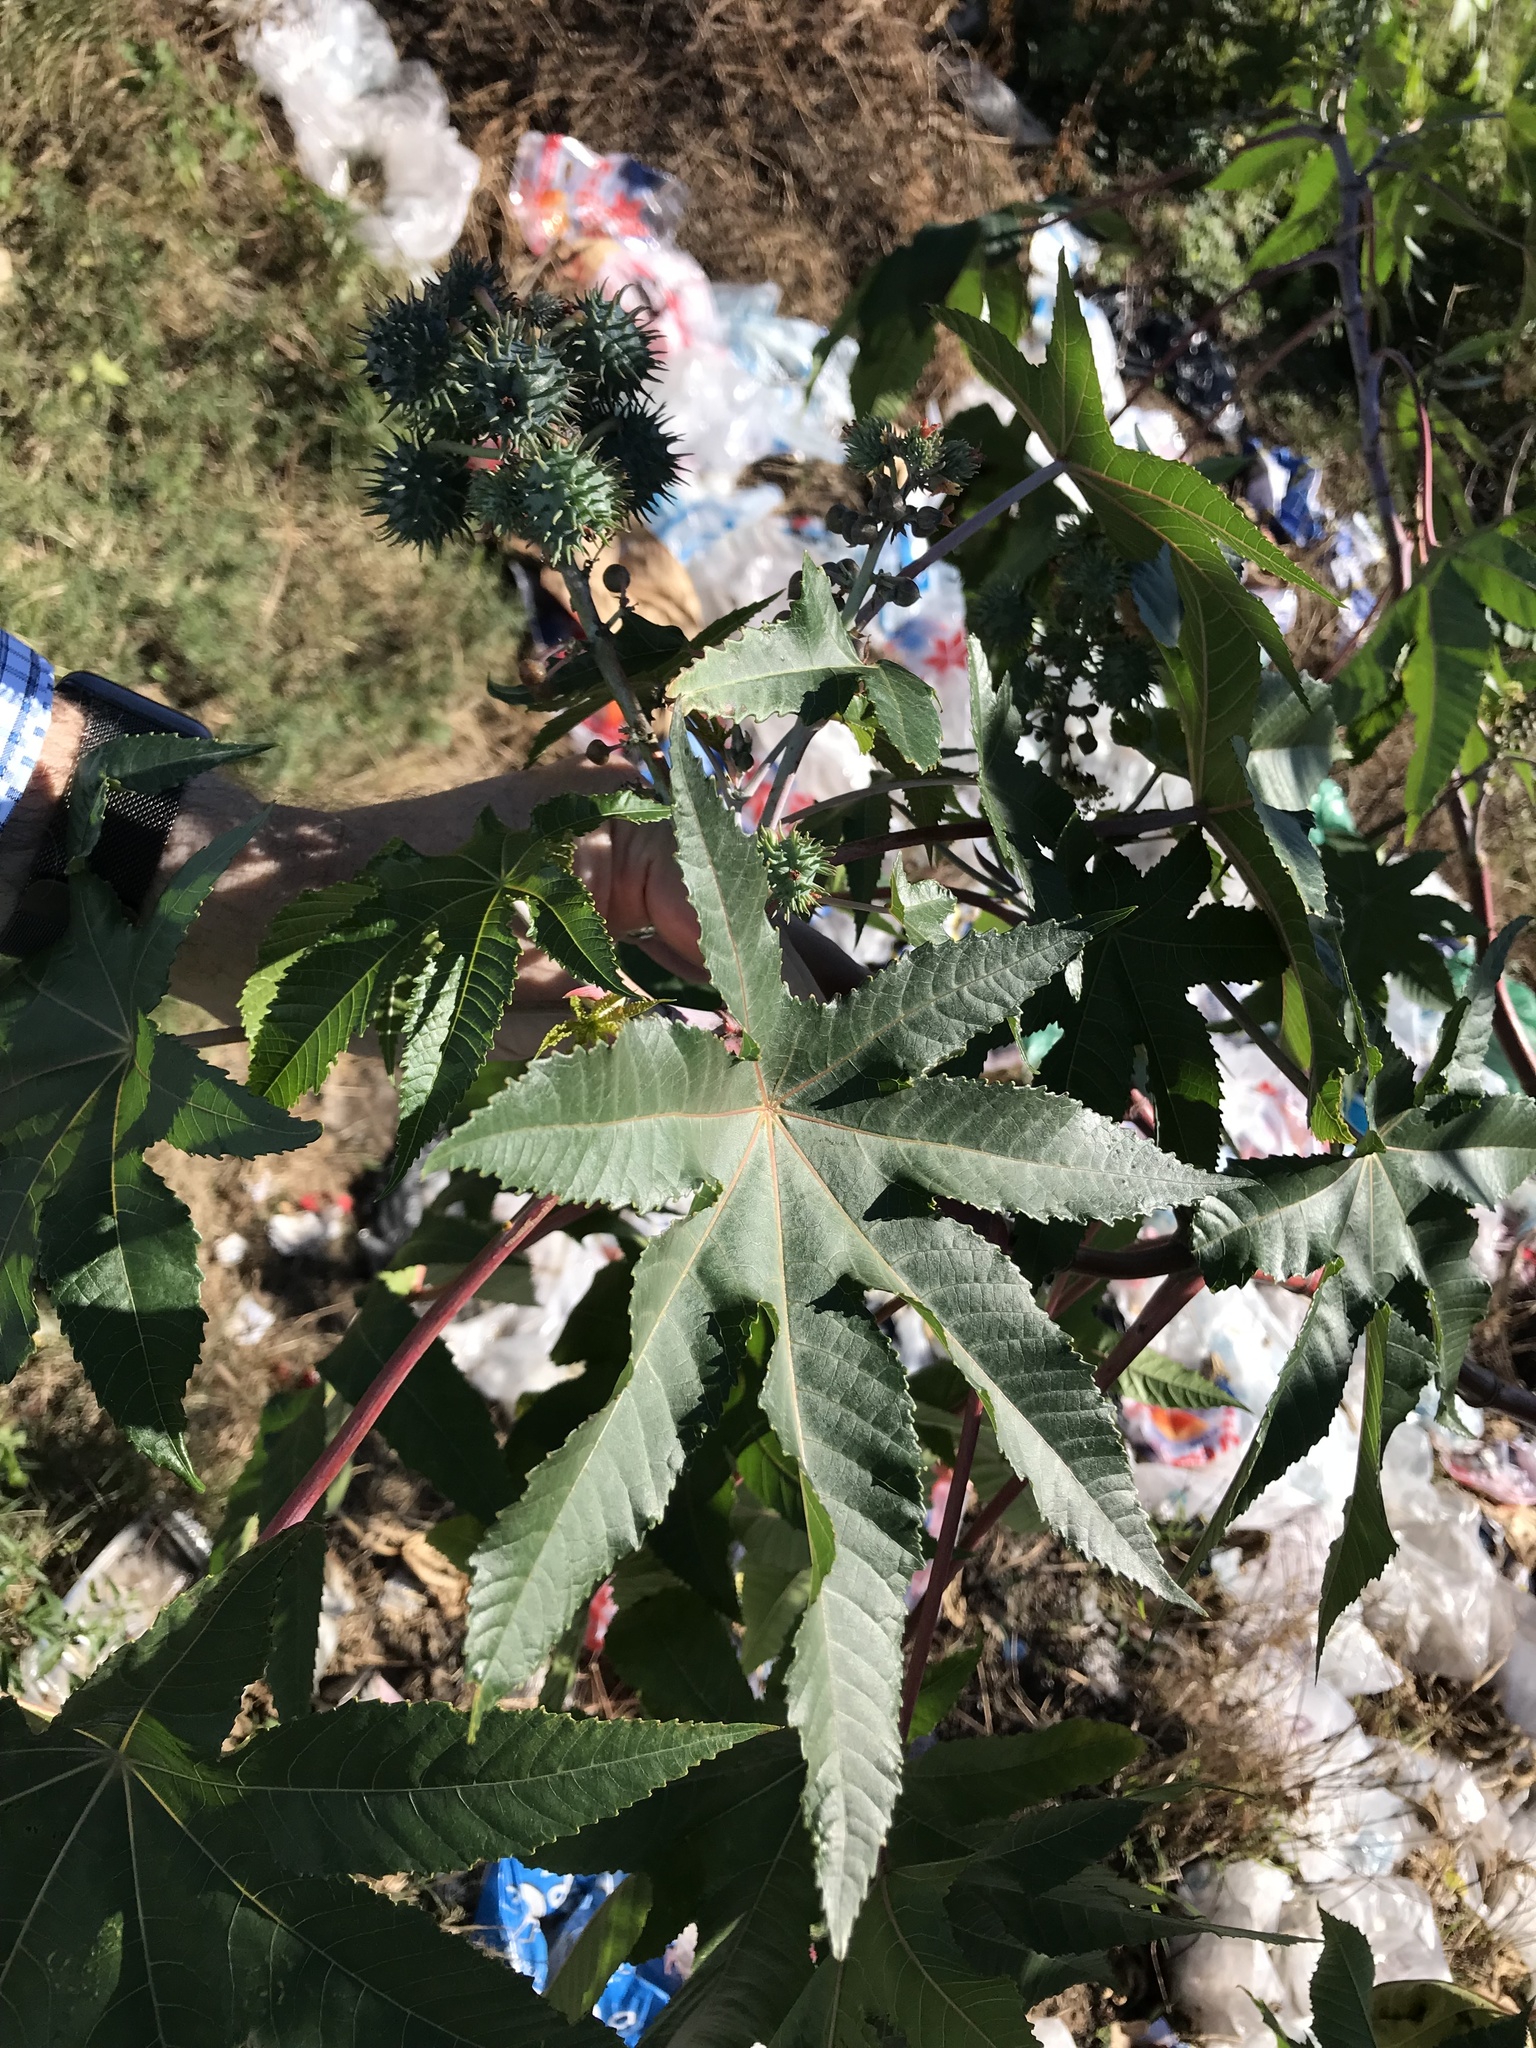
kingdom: Plantae
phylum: Tracheophyta
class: Magnoliopsida
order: Malpighiales
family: Euphorbiaceae
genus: Ricinus
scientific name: Ricinus communis
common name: Castor-oil-plant
